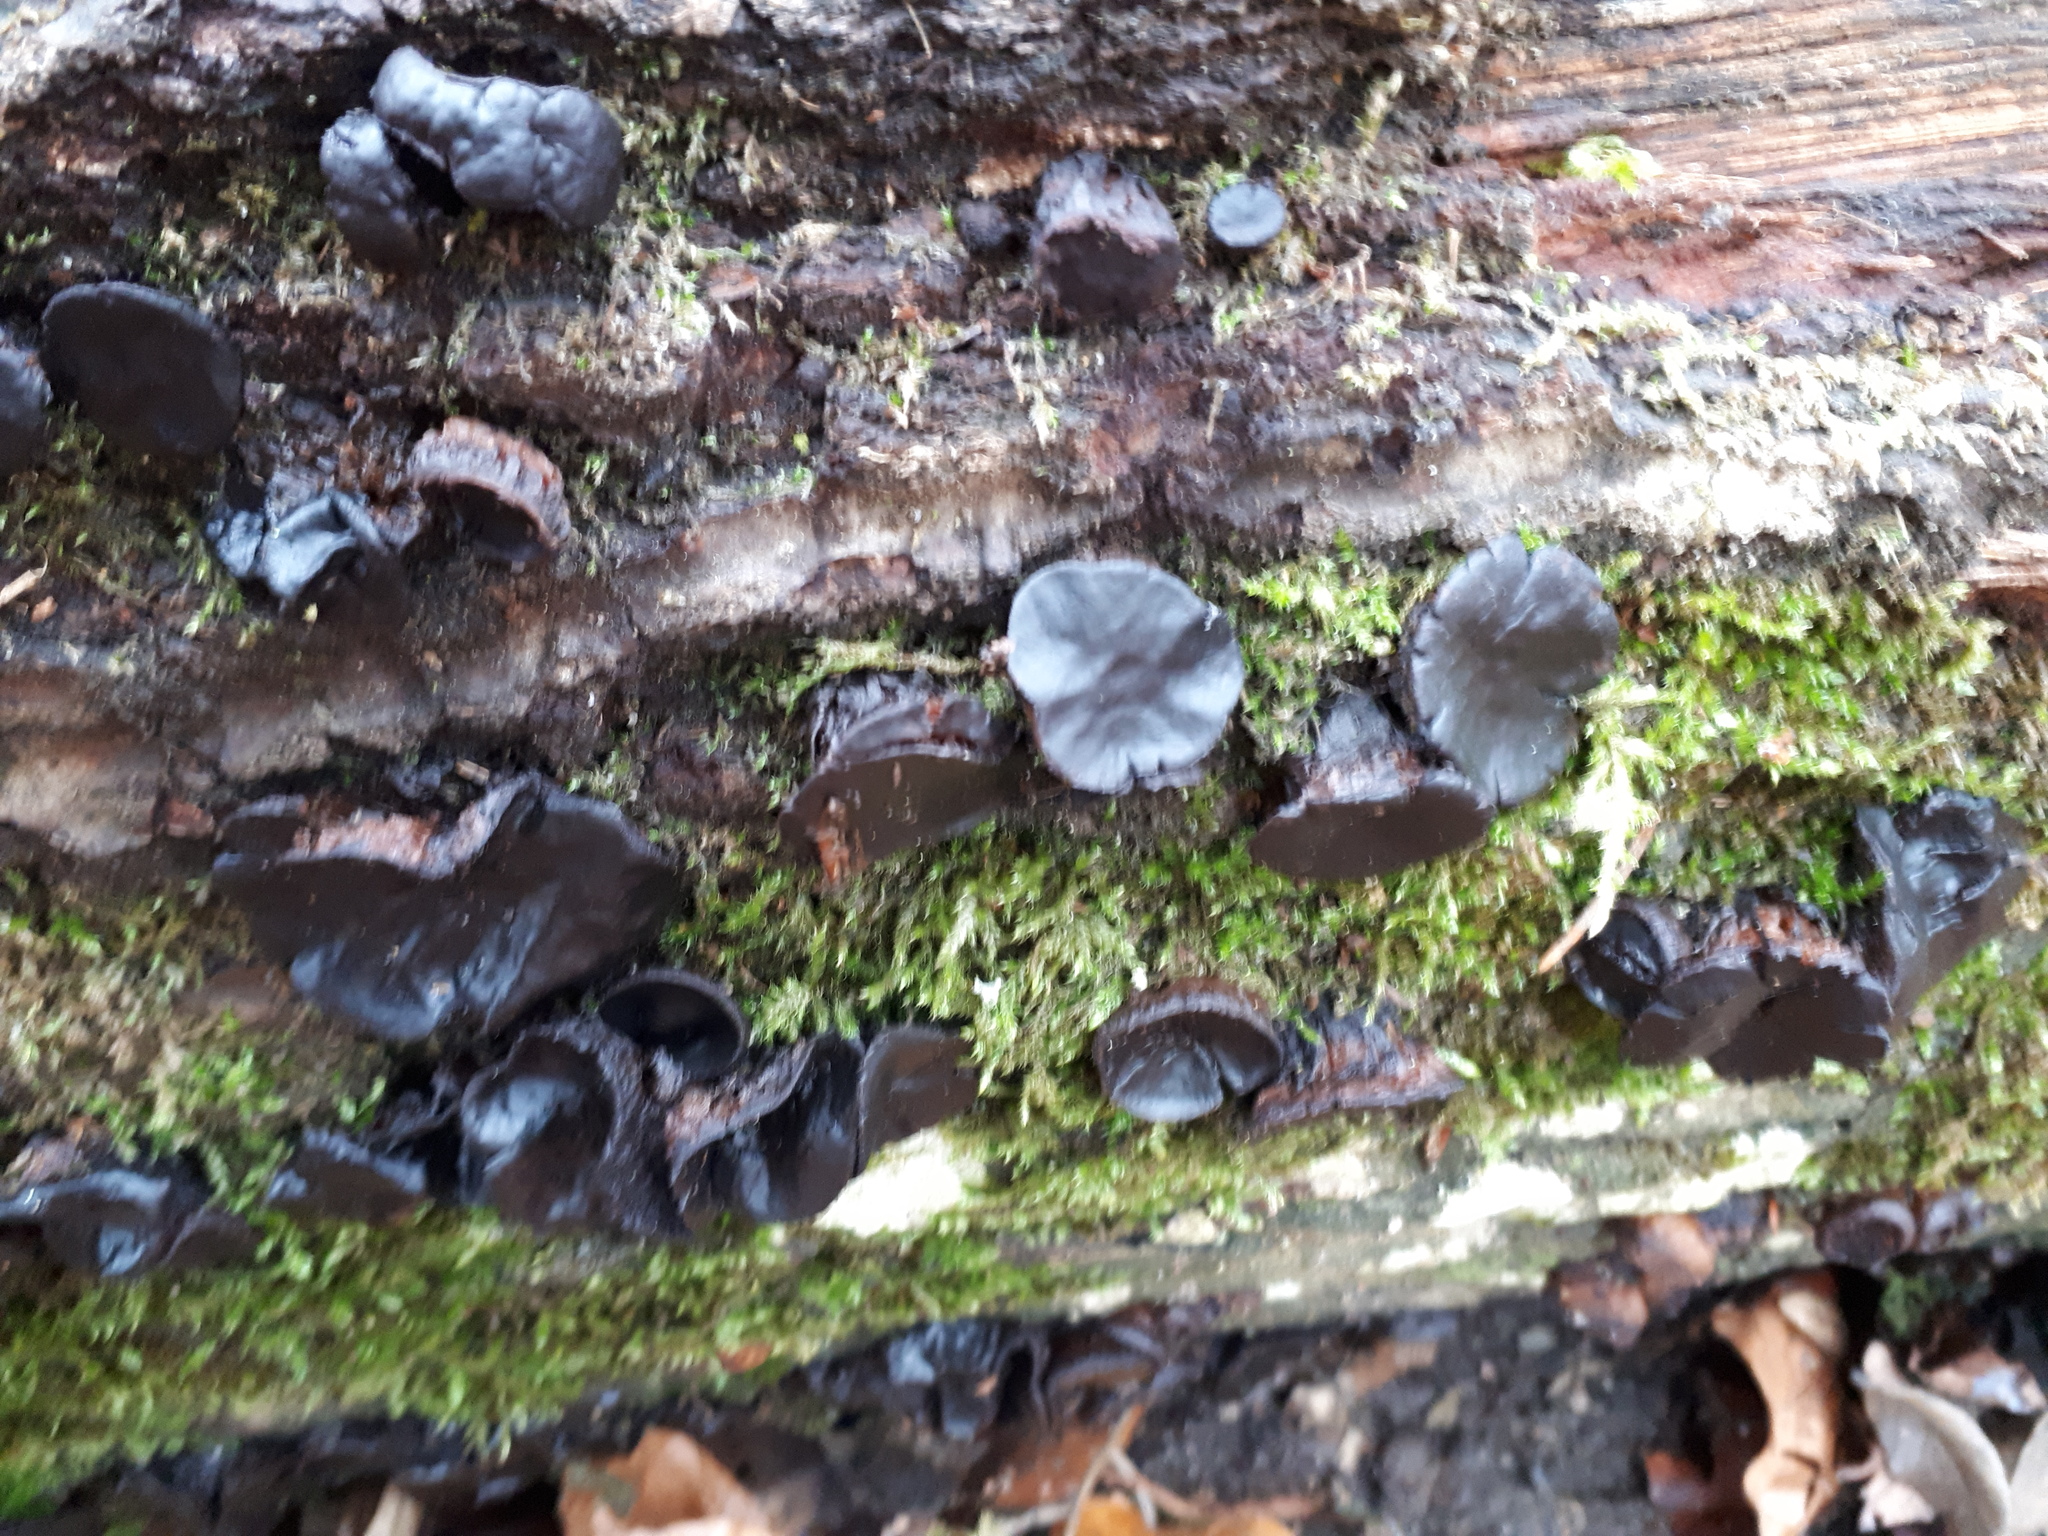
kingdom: Fungi
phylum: Ascomycota
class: Leotiomycetes
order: Phacidiales
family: Phacidiaceae
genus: Bulgaria
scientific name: Bulgaria inquinans
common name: Black bulgar
